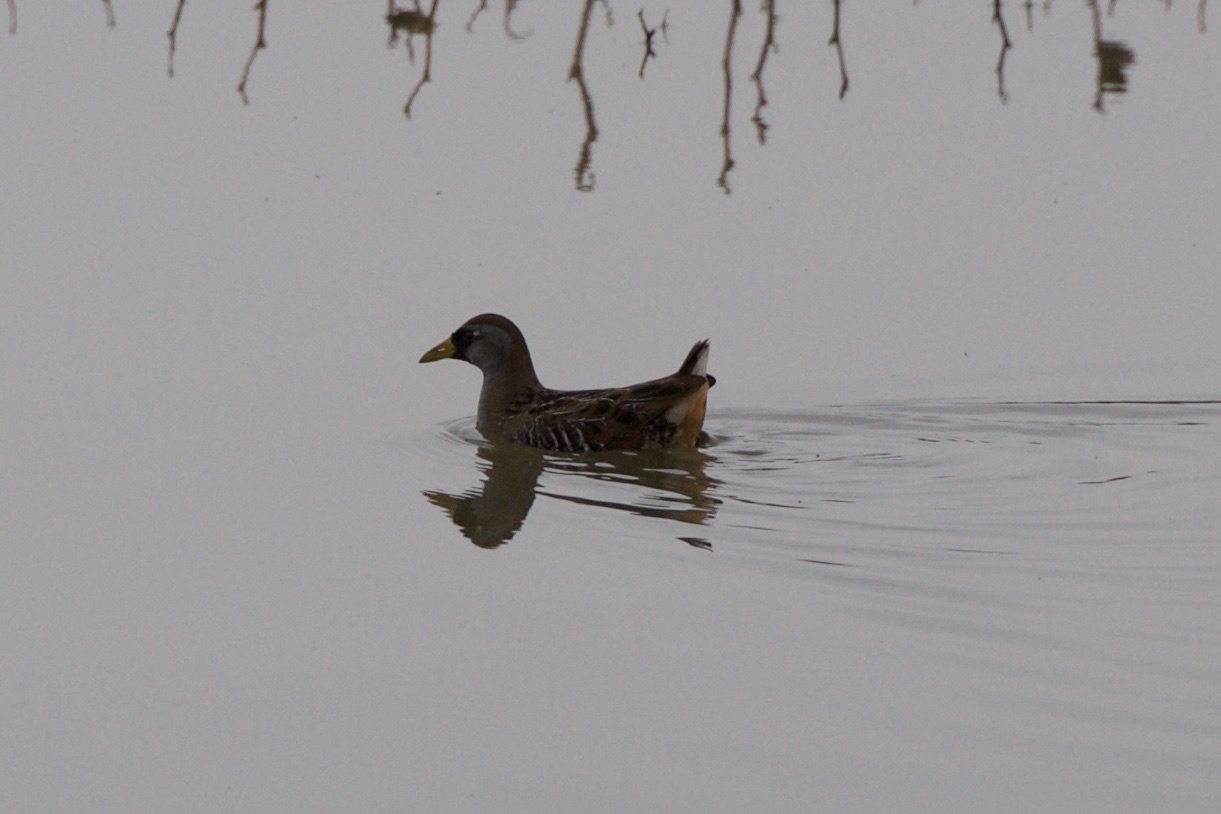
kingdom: Animalia
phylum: Chordata
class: Aves
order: Gruiformes
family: Rallidae
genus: Porzana
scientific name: Porzana carolina
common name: Sora
